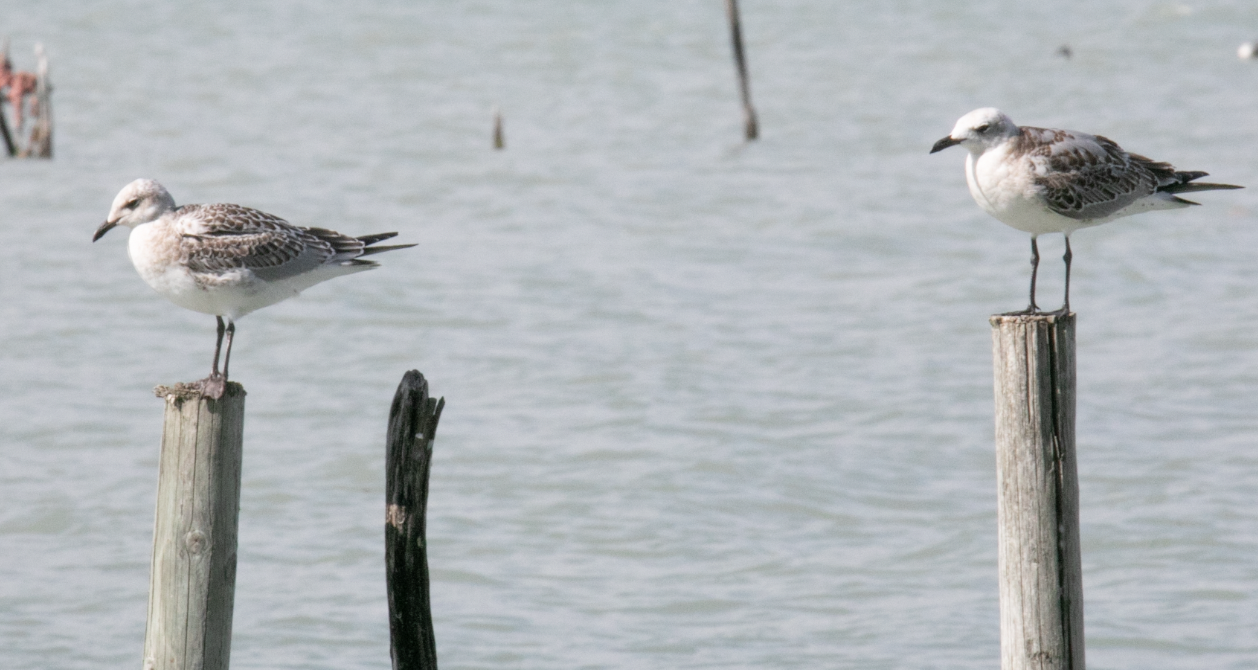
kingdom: Animalia
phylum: Chordata
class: Aves
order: Charadriiformes
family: Laridae
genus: Ichthyaetus
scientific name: Ichthyaetus melanocephalus
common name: Mediterranean gull
